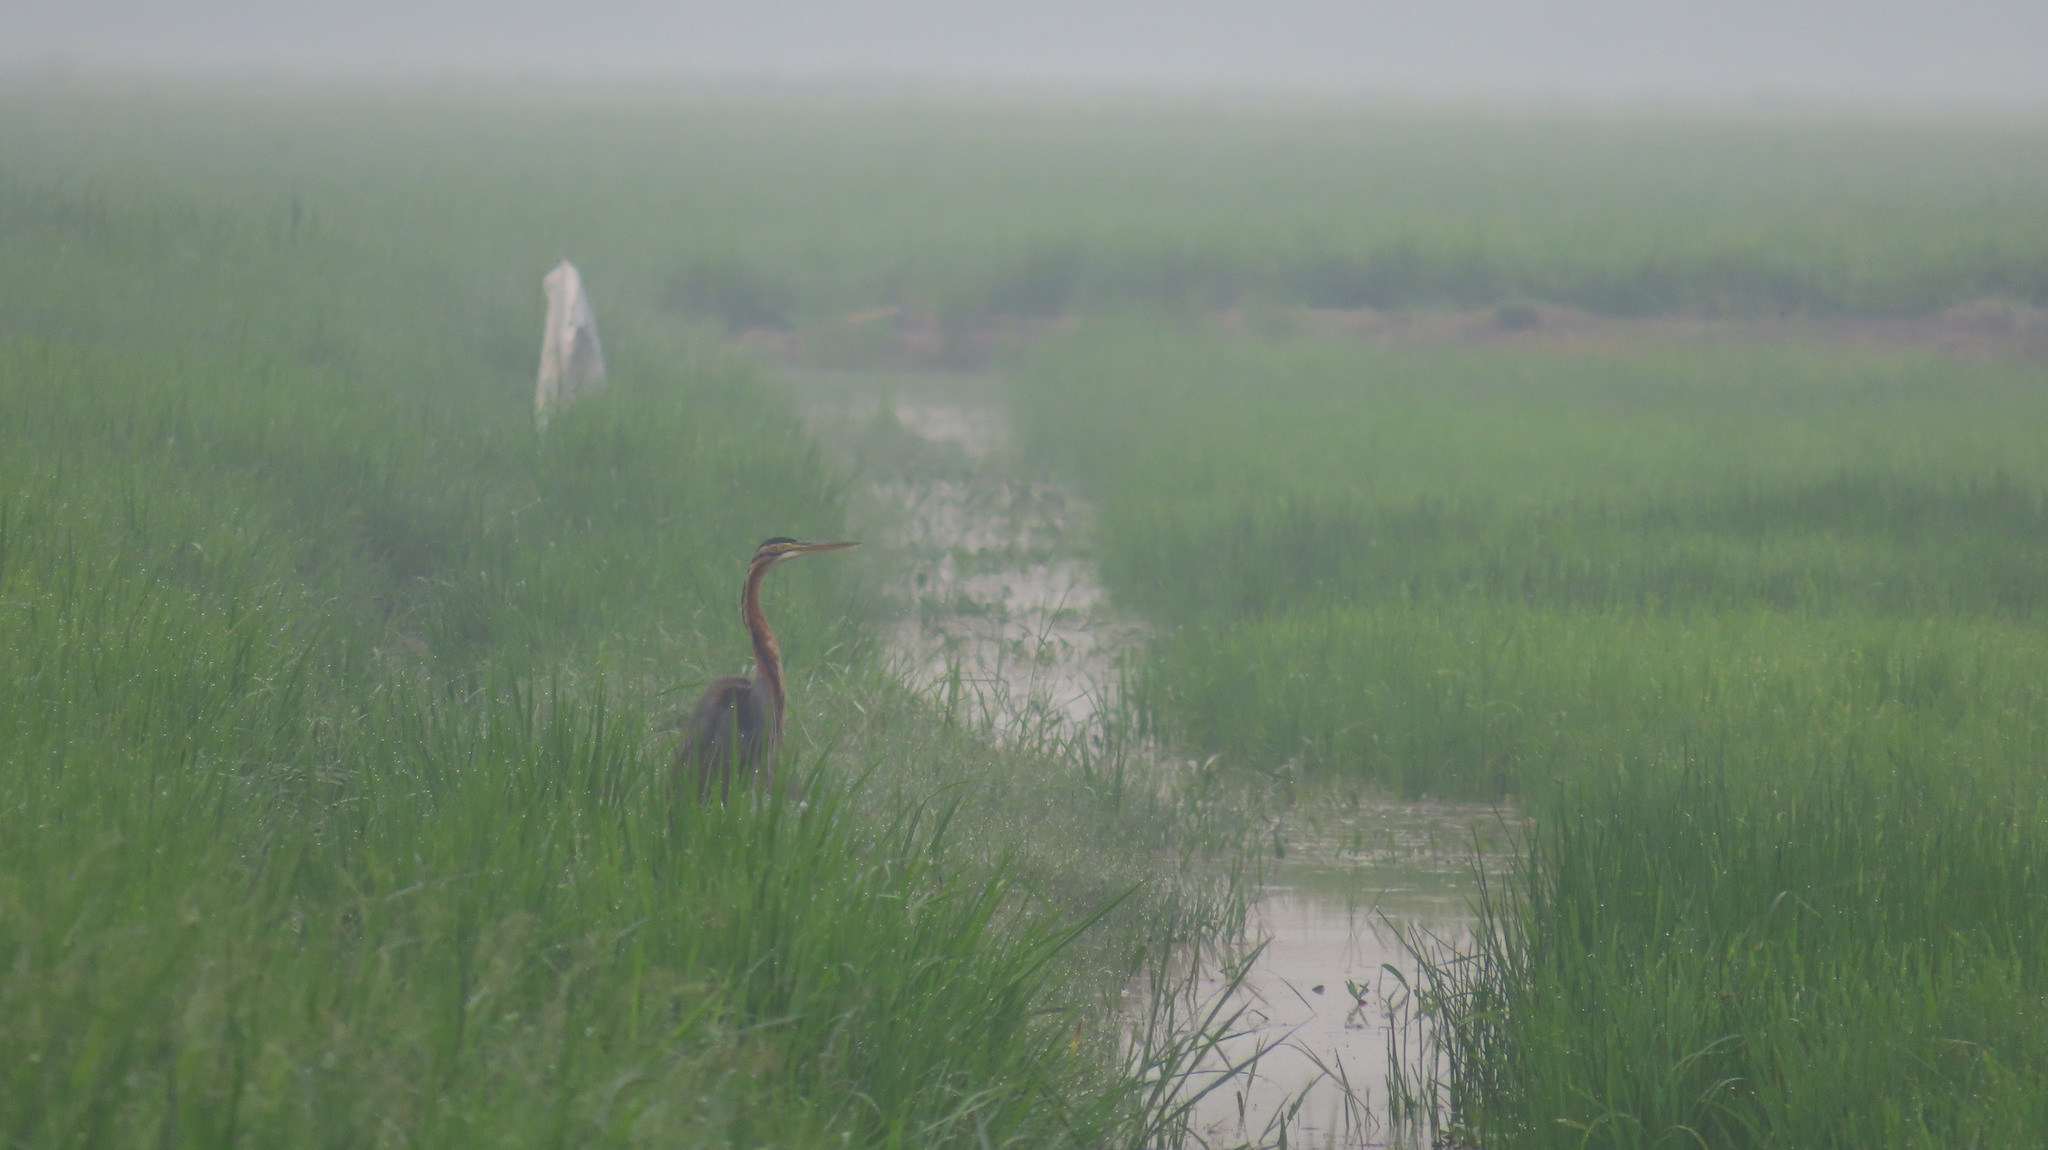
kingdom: Animalia
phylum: Chordata
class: Aves
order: Pelecaniformes
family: Ardeidae
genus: Ardea
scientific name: Ardea purpurea
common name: Purple heron
